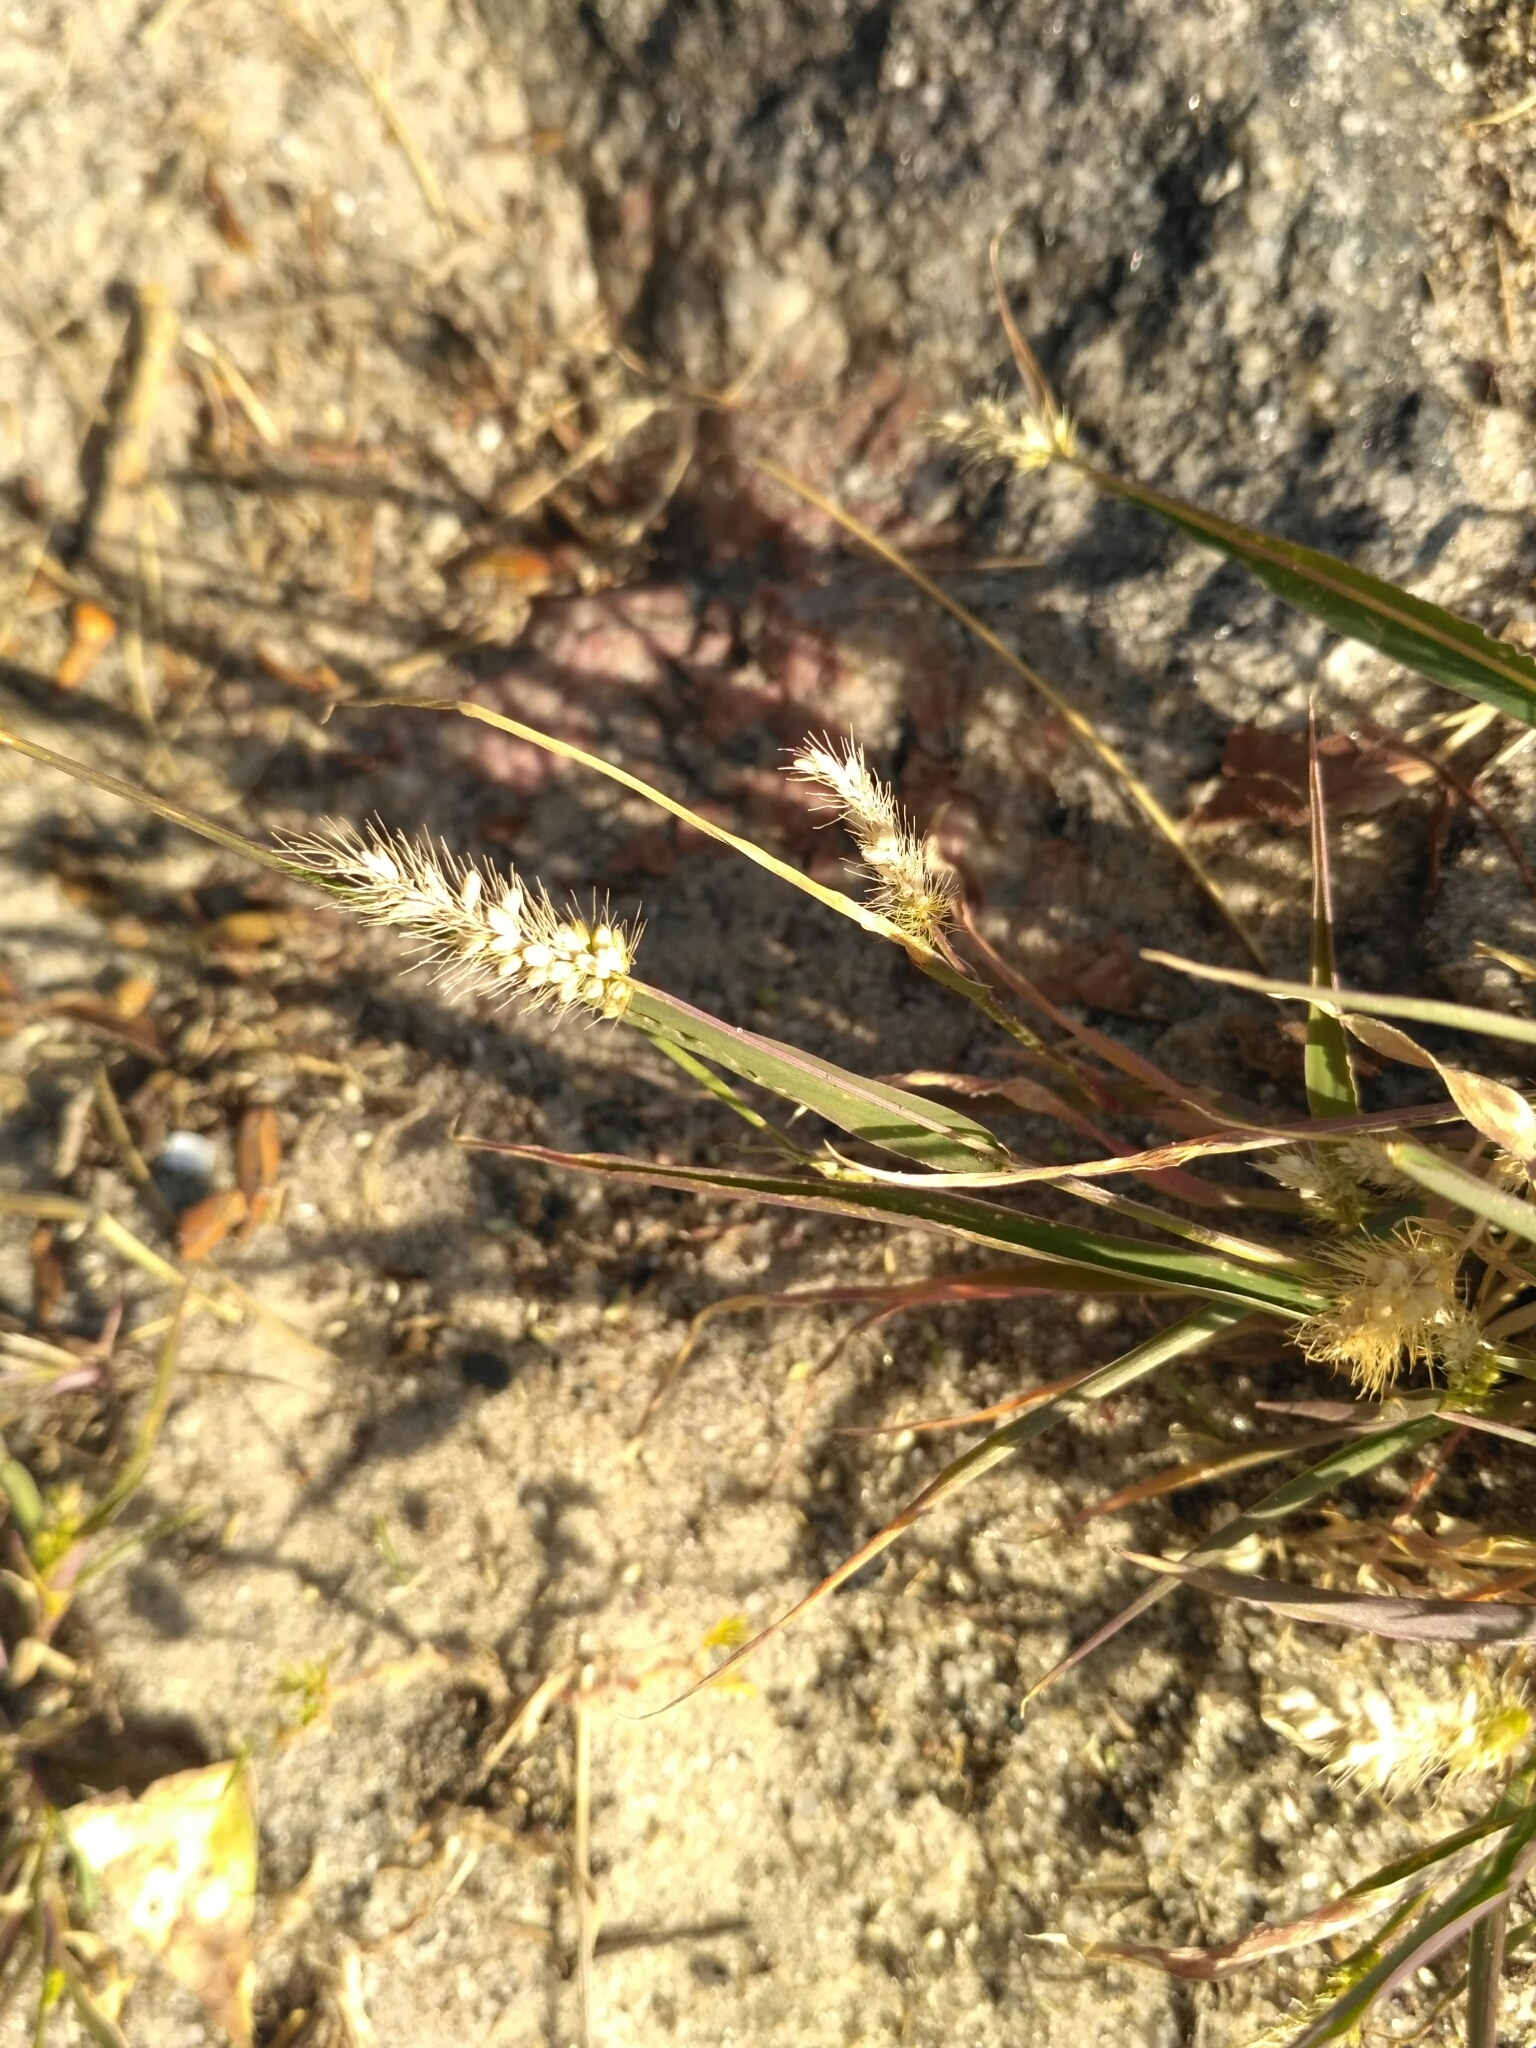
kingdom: Plantae
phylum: Tracheophyta
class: Liliopsida
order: Poales
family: Poaceae
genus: Setaria
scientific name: Setaria viridis
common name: Green bristlegrass
